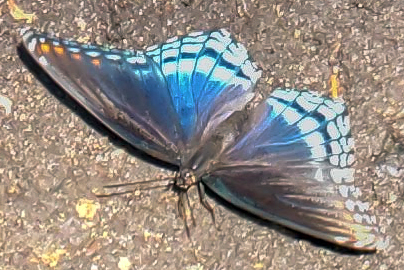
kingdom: Animalia
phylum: Arthropoda
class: Insecta
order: Lepidoptera
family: Nymphalidae
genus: Limenitis
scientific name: Limenitis astyanax
